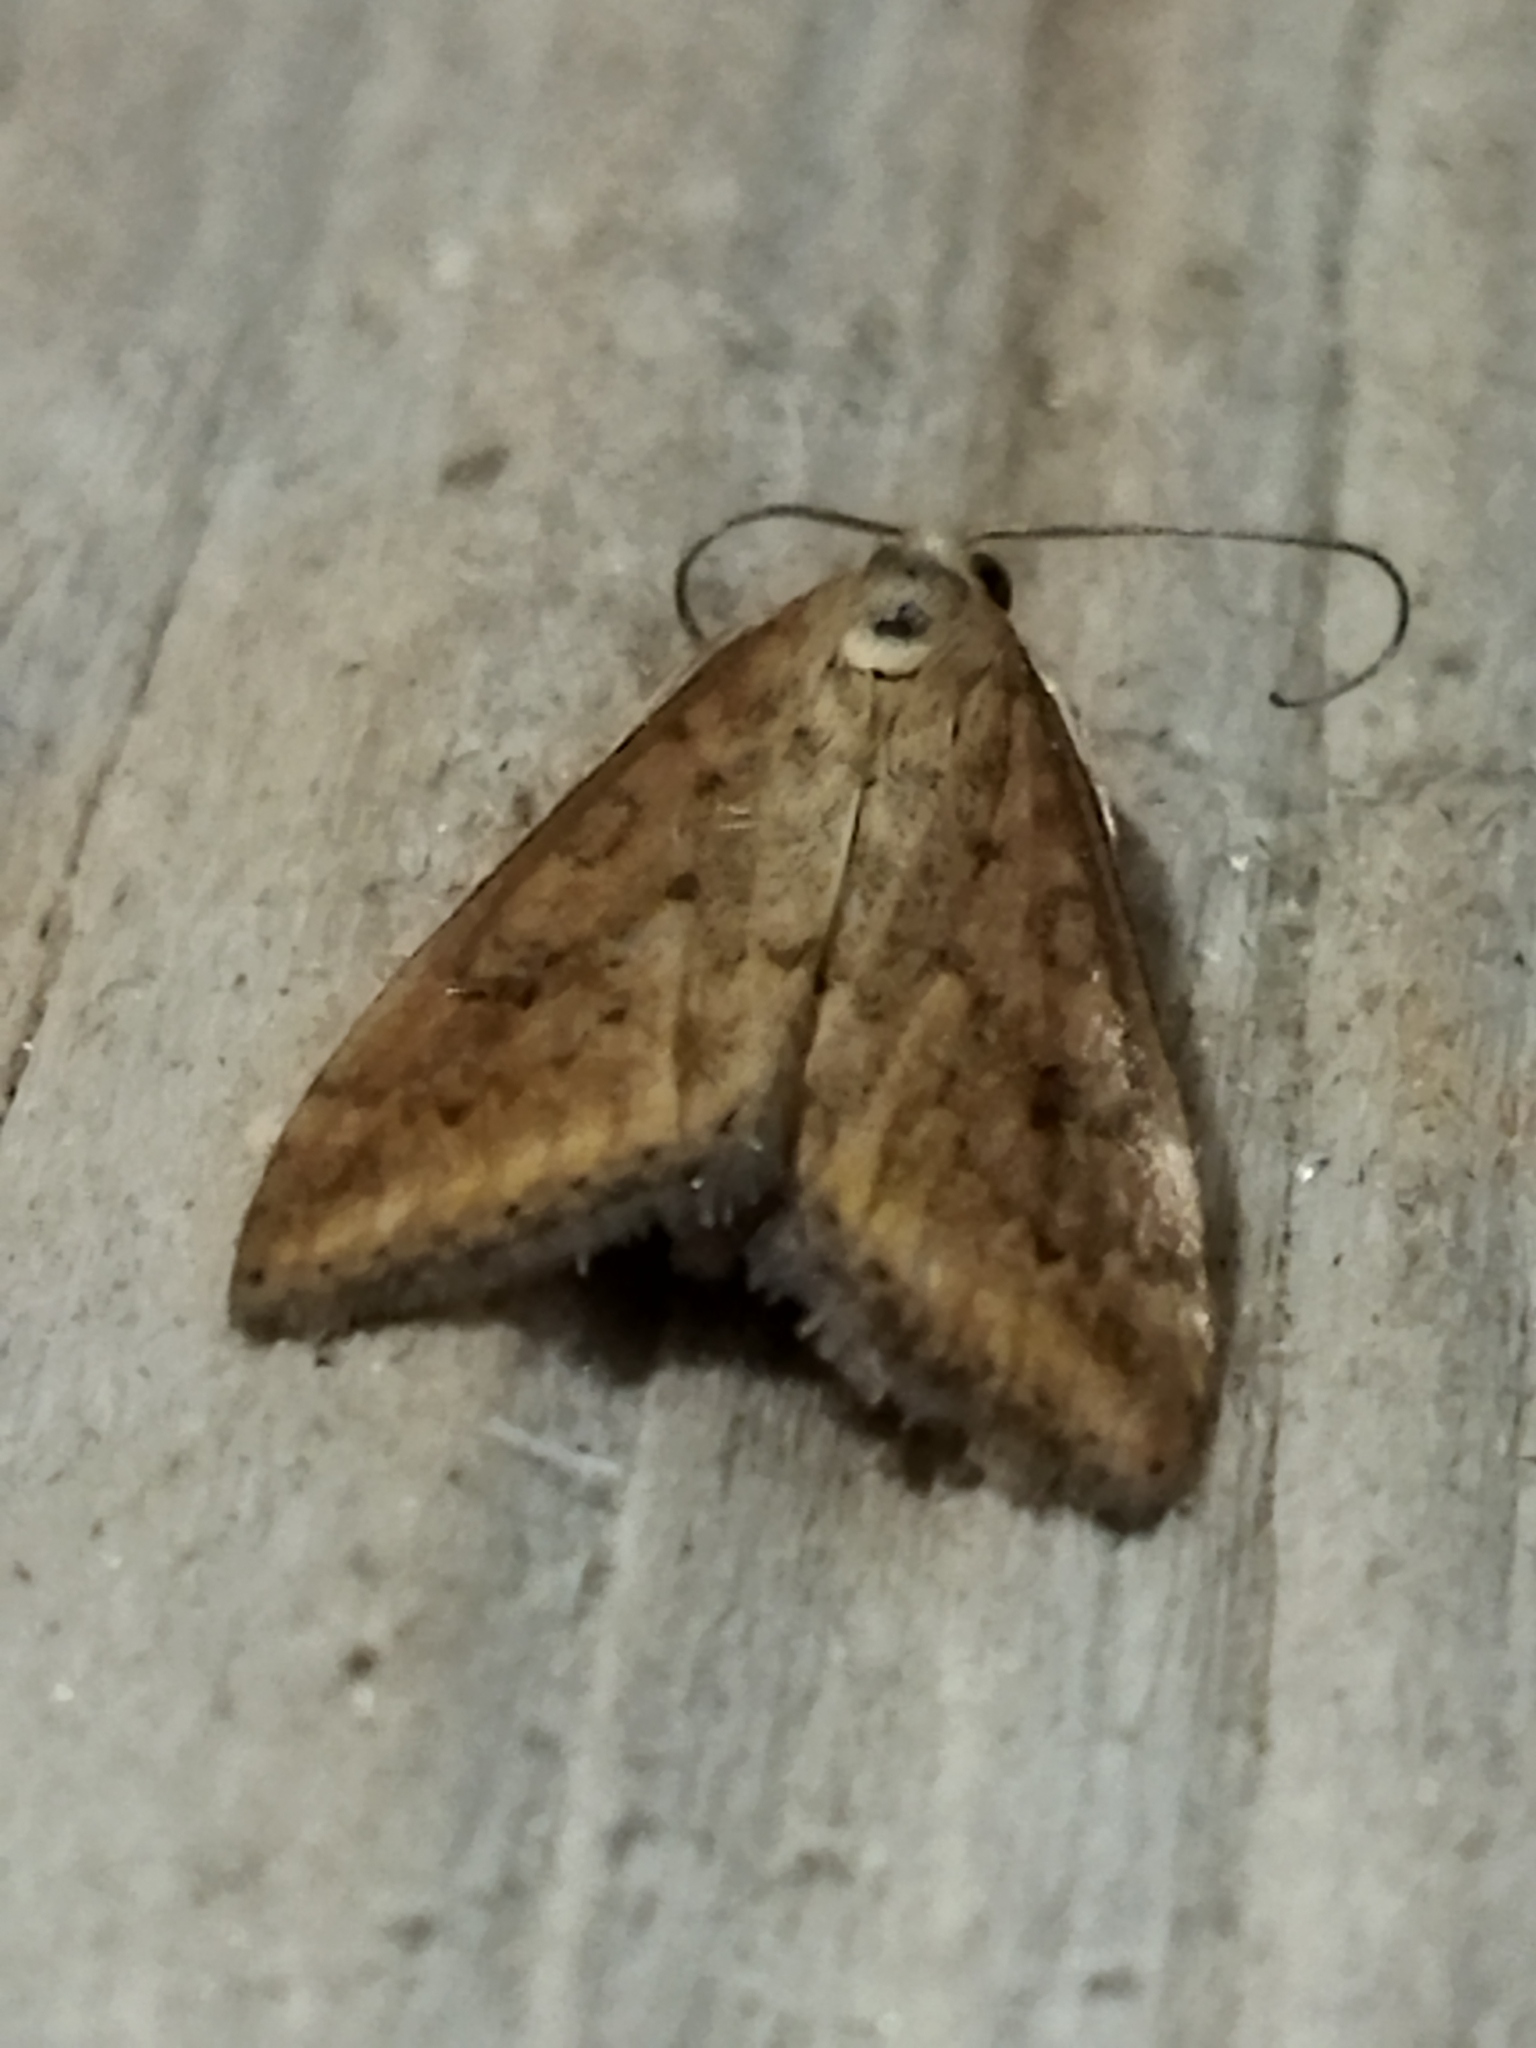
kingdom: Animalia
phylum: Arthropoda
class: Insecta
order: Lepidoptera
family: Crambidae
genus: Udea
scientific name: Udea ferrugalis
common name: Rusty dot
